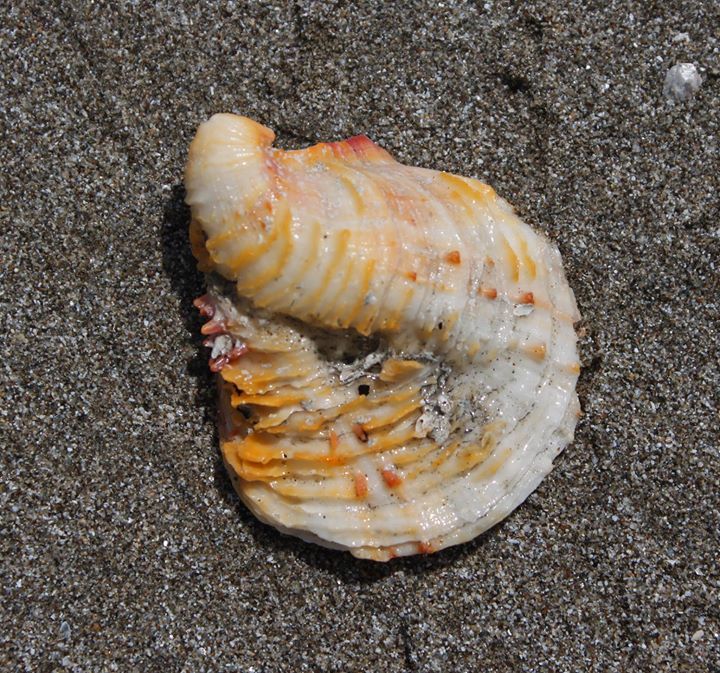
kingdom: Animalia
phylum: Mollusca
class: Bivalvia
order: Pectinida
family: Spondylidae
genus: Spondylus
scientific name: Spondylus gaederopus
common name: European thorny oyster
